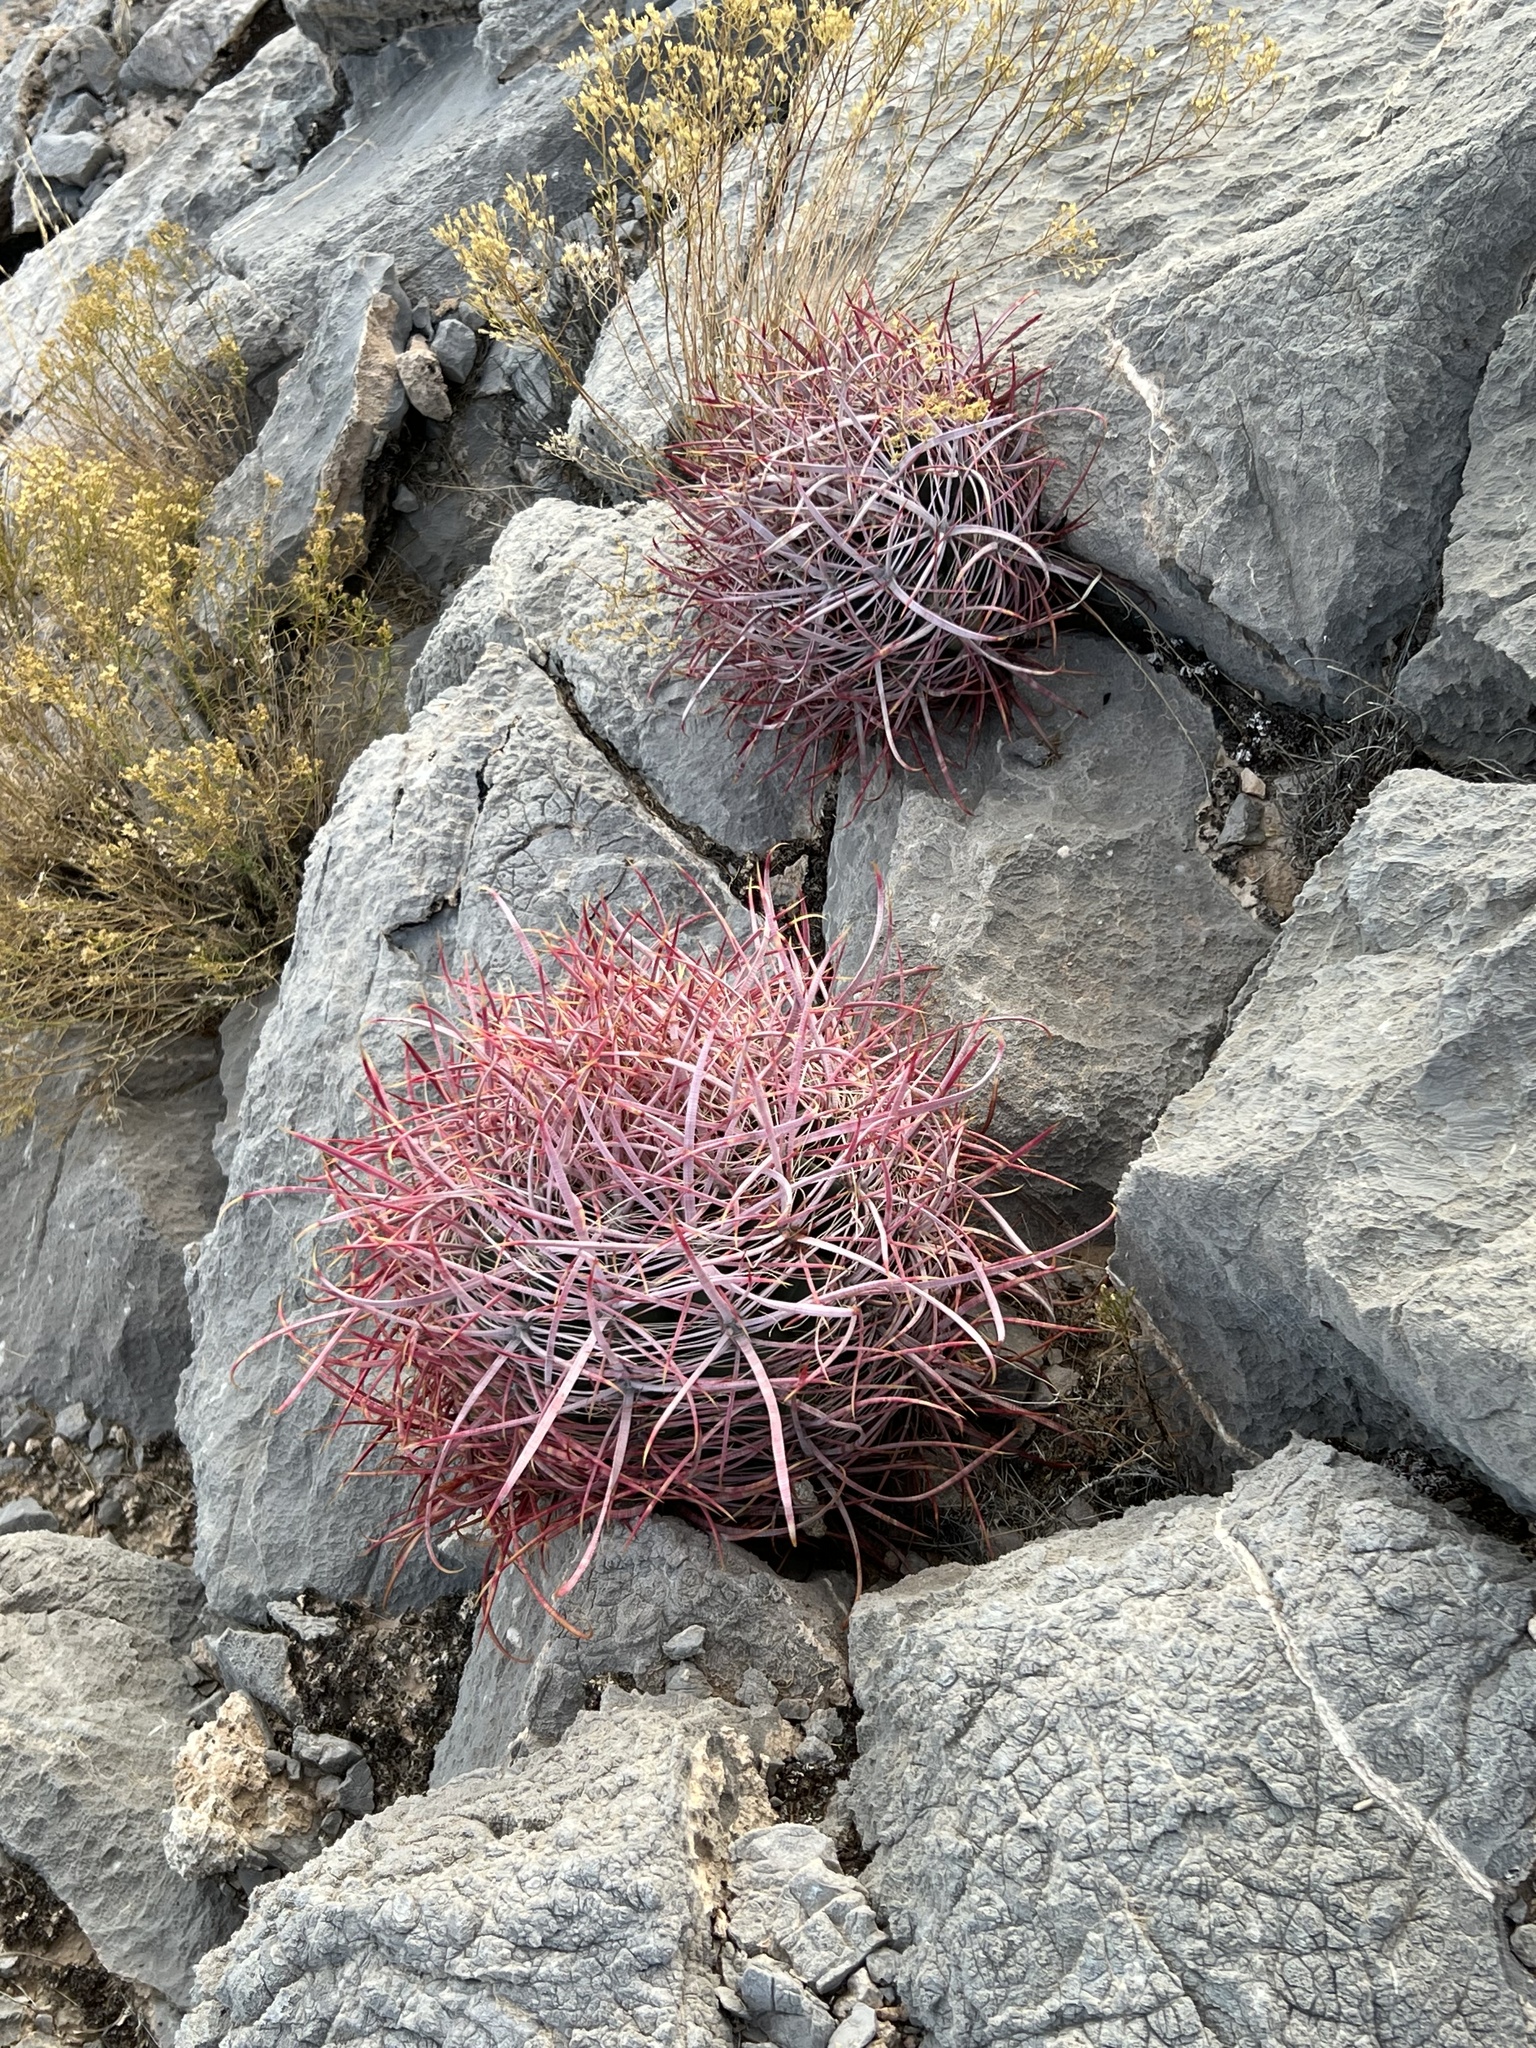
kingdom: Plantae
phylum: Tracheophyta
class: Magnoliopsida
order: Caryophyllales
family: Cactaceae
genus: Ferocactus
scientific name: Ferocactus cylindraceus
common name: California barrel cactus
